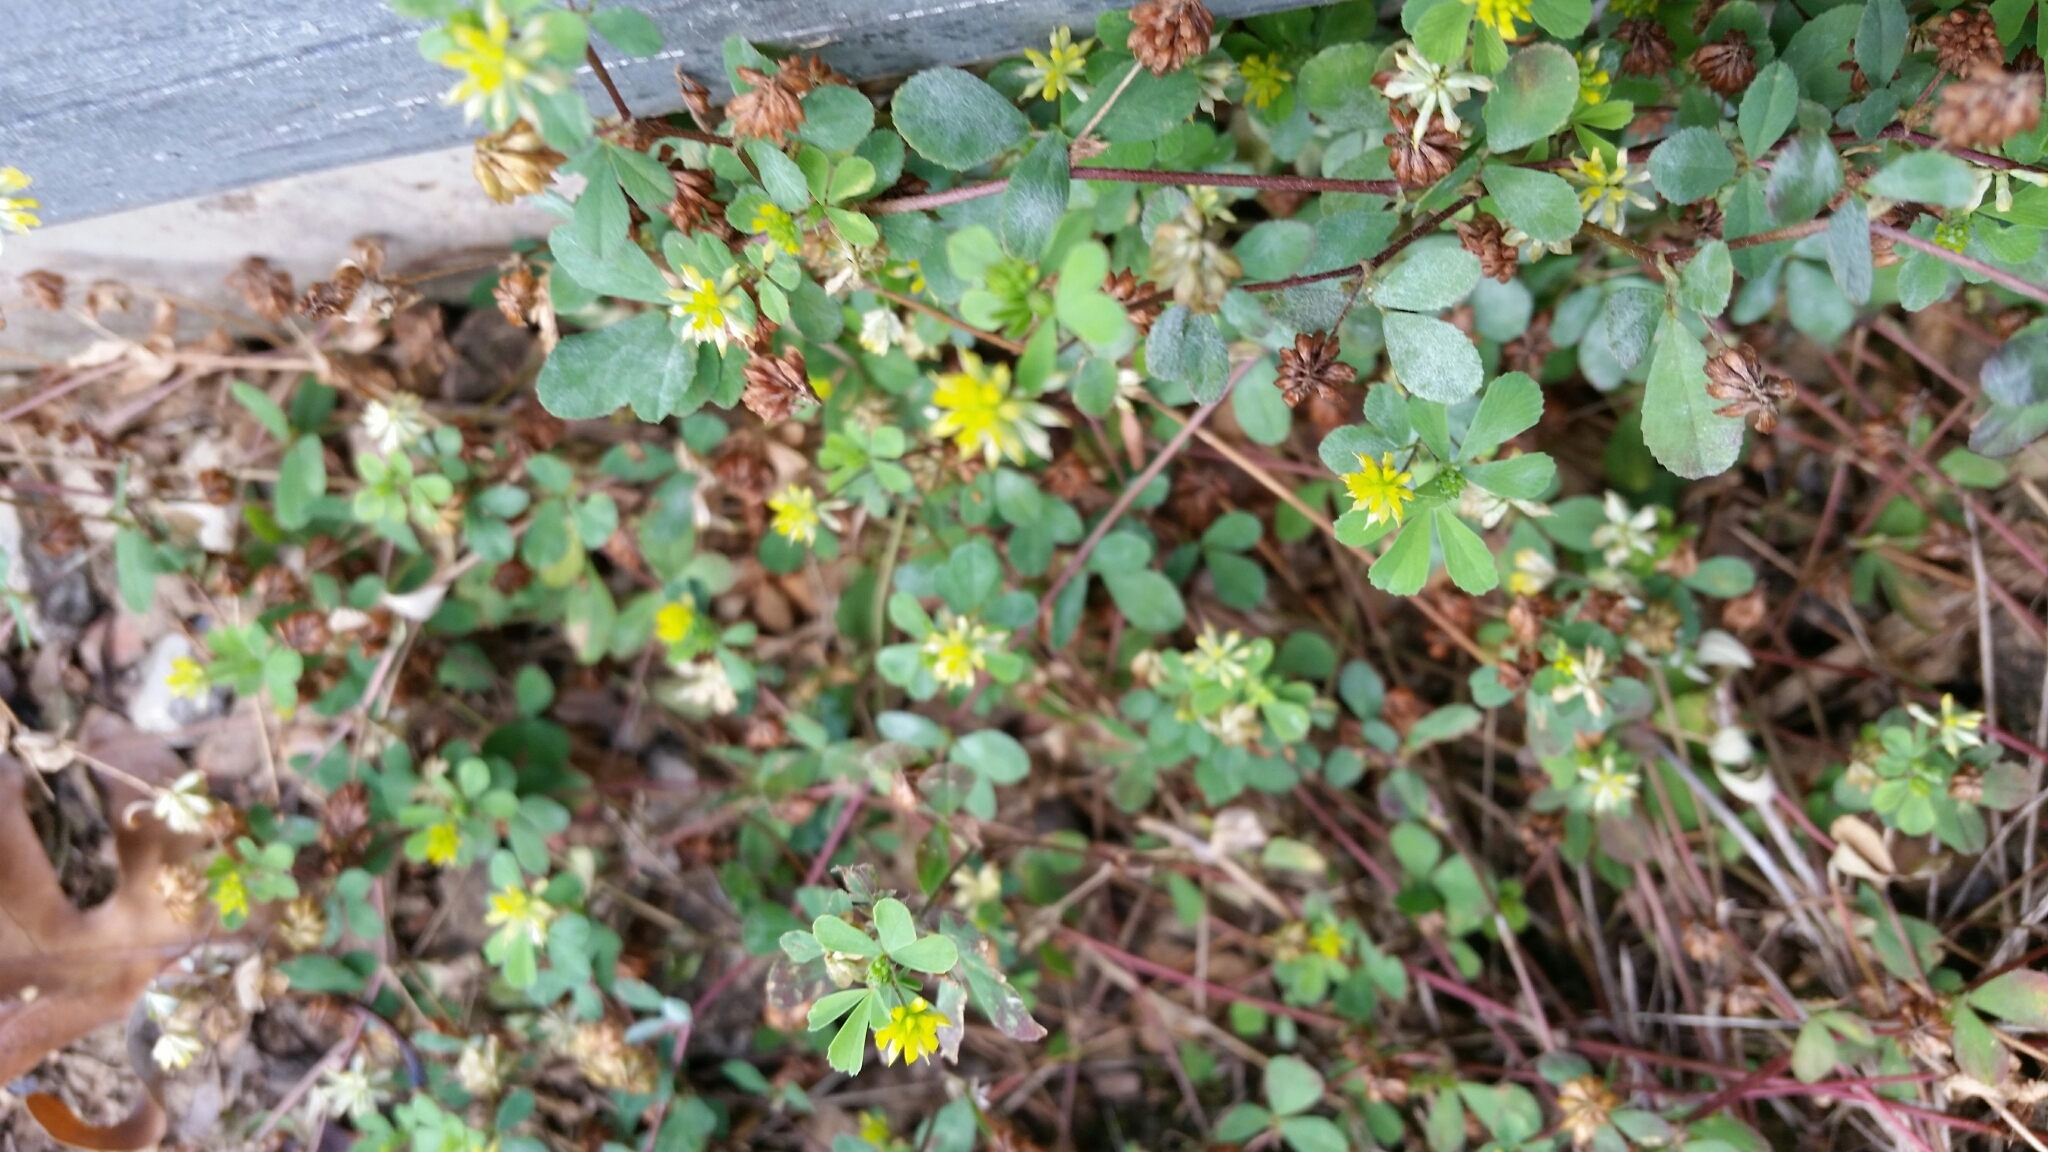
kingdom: Plantae
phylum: Tracheophyta
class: Magnoliopsida
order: Fabales
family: Fabaceae
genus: Trifolium
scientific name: Trifolium dubium
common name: Suckling clover
